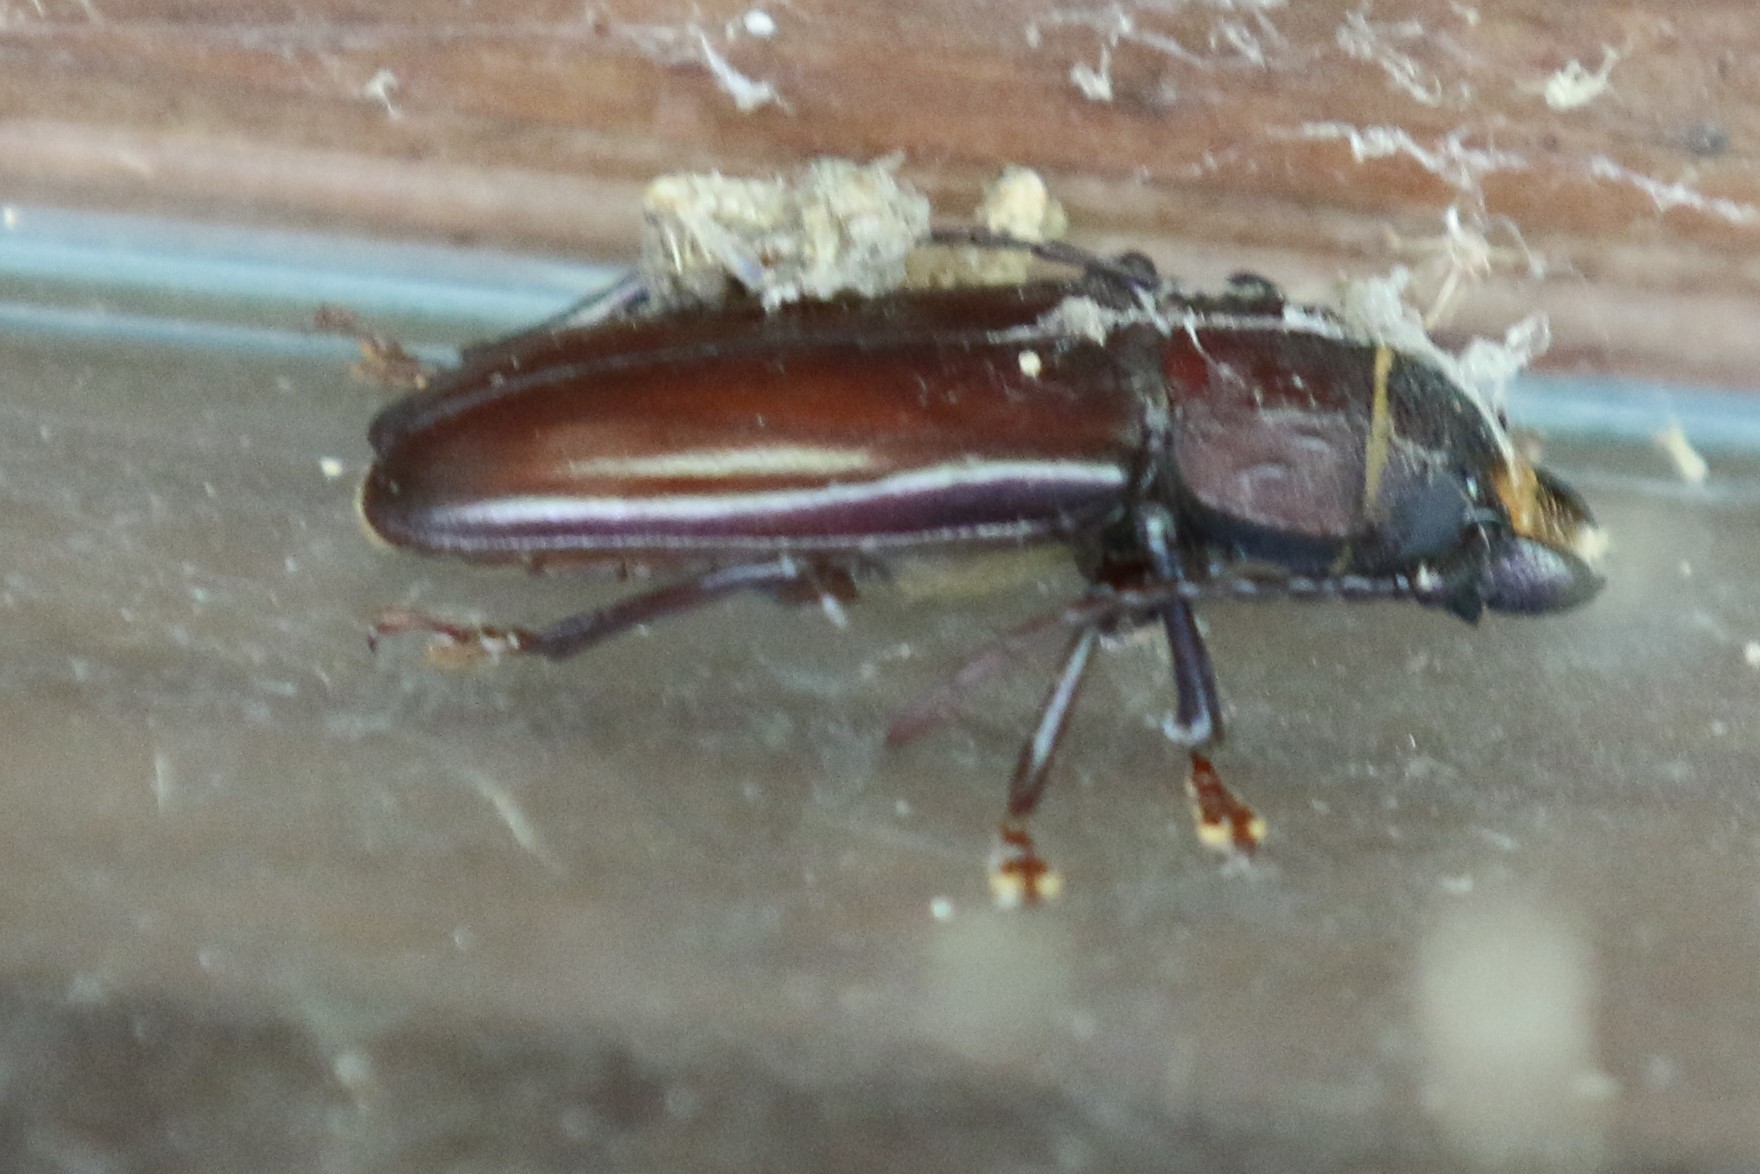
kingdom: Animalia
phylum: Arthropoda
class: Insecta
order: Coleoptera
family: Cerambycidae
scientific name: Cerambycidae
